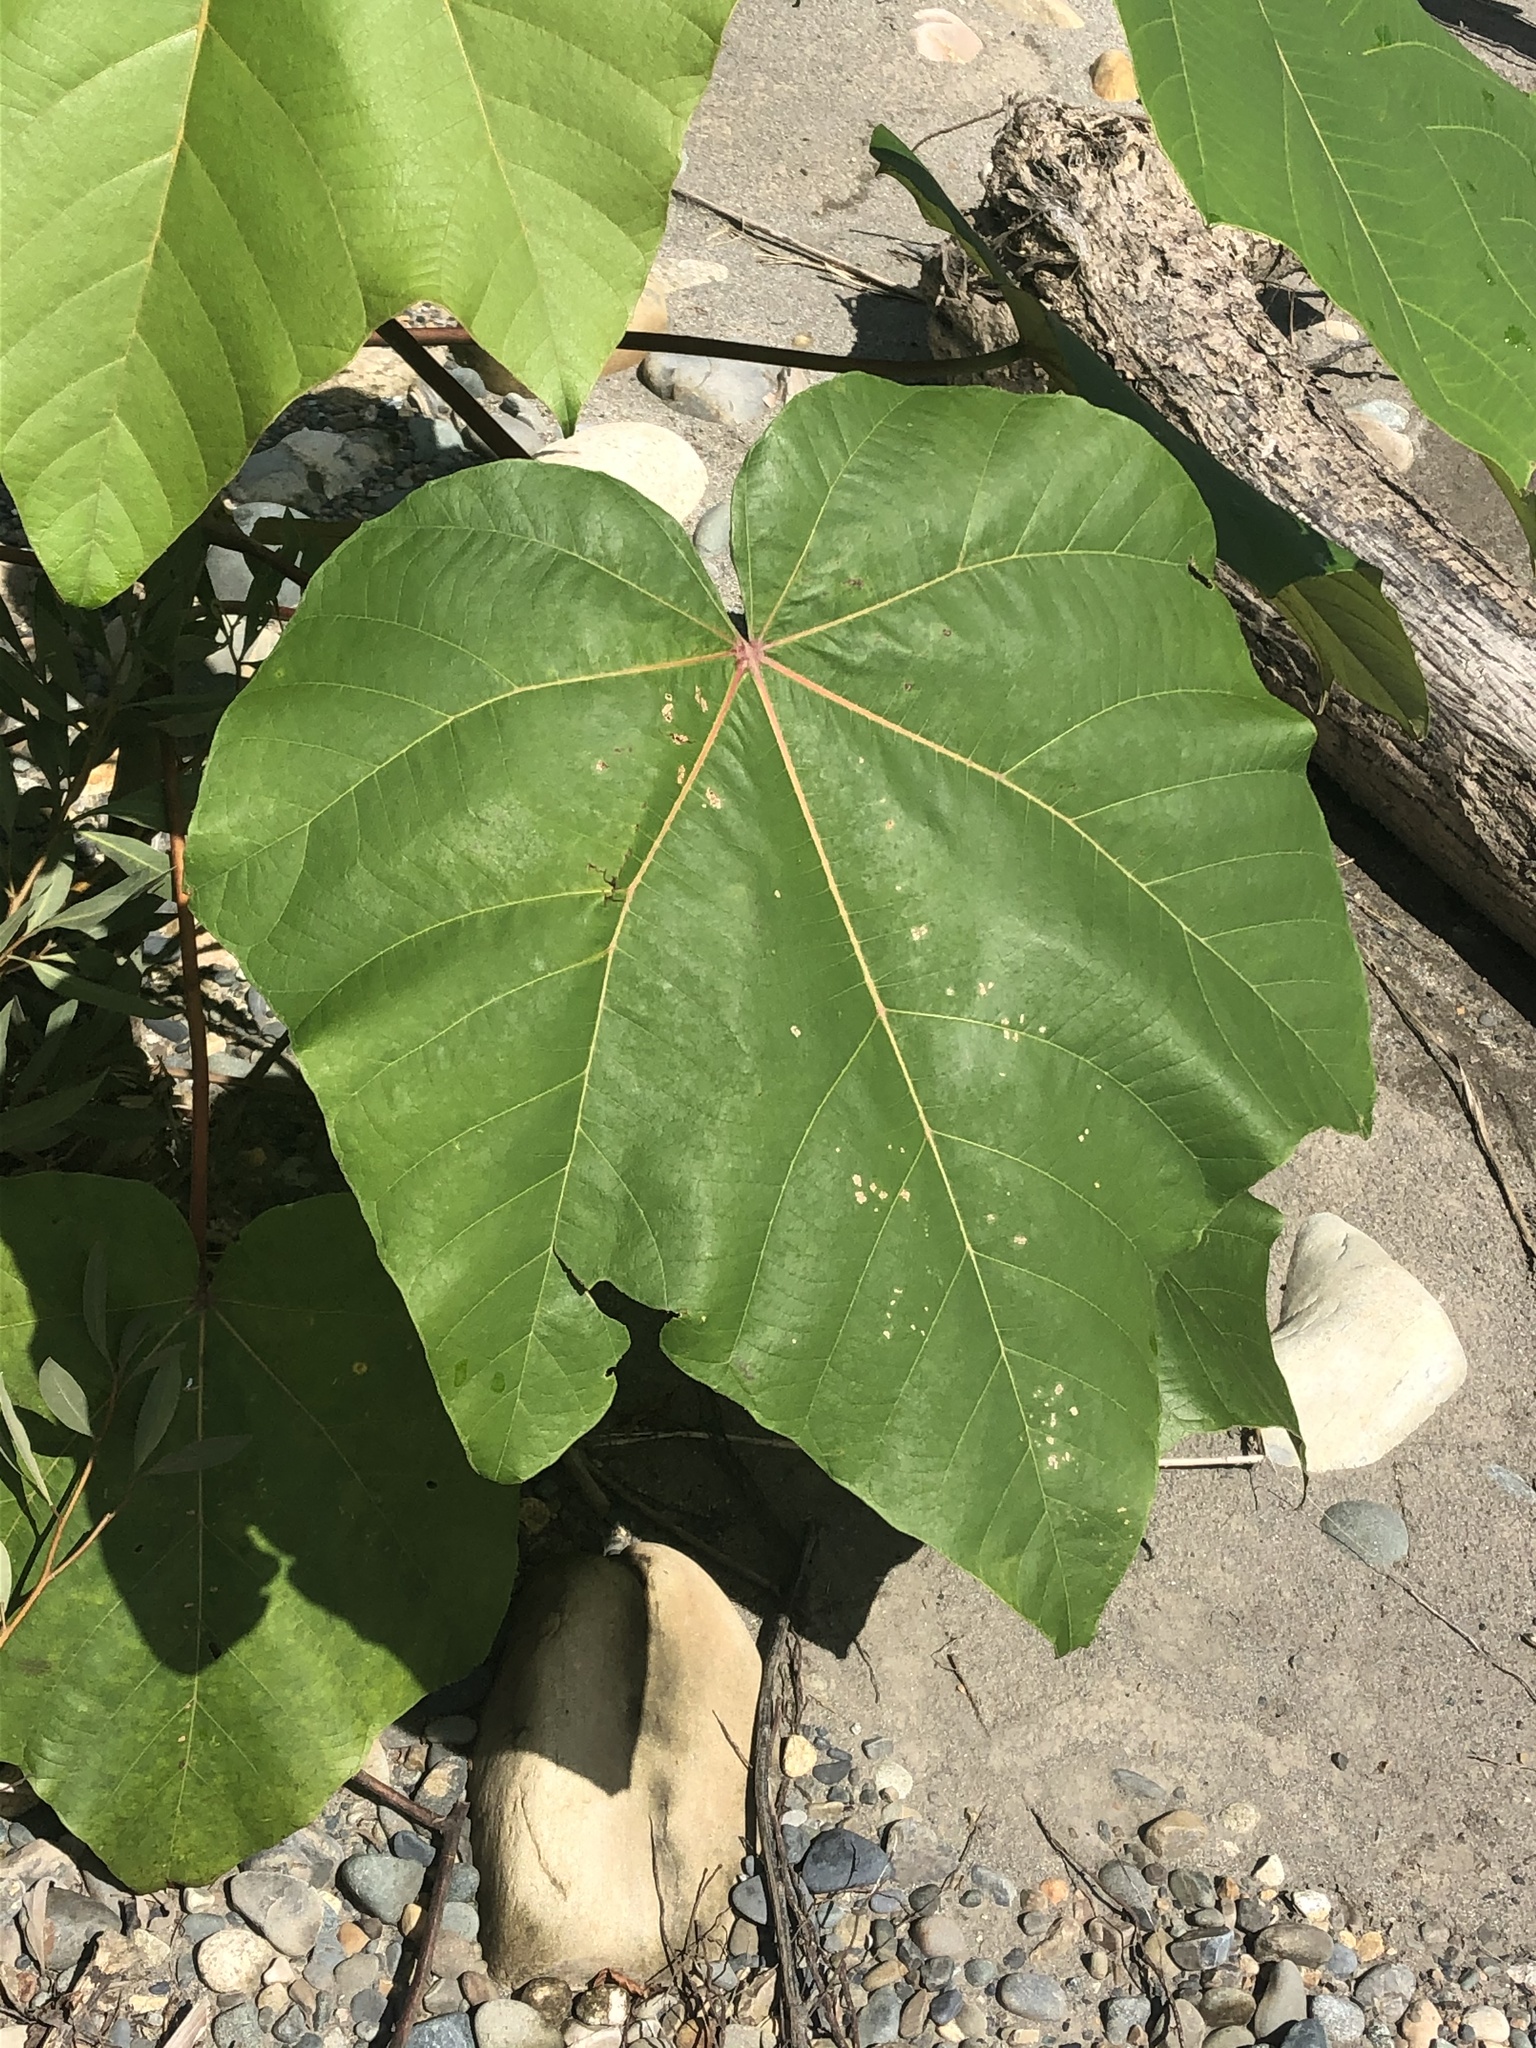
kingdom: Plantae
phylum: Tracheophyta
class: Magnoliopsida
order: Malvales
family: Malvaceae
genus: Ochroma
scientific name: Ochroma pyramidale
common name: Balsa
